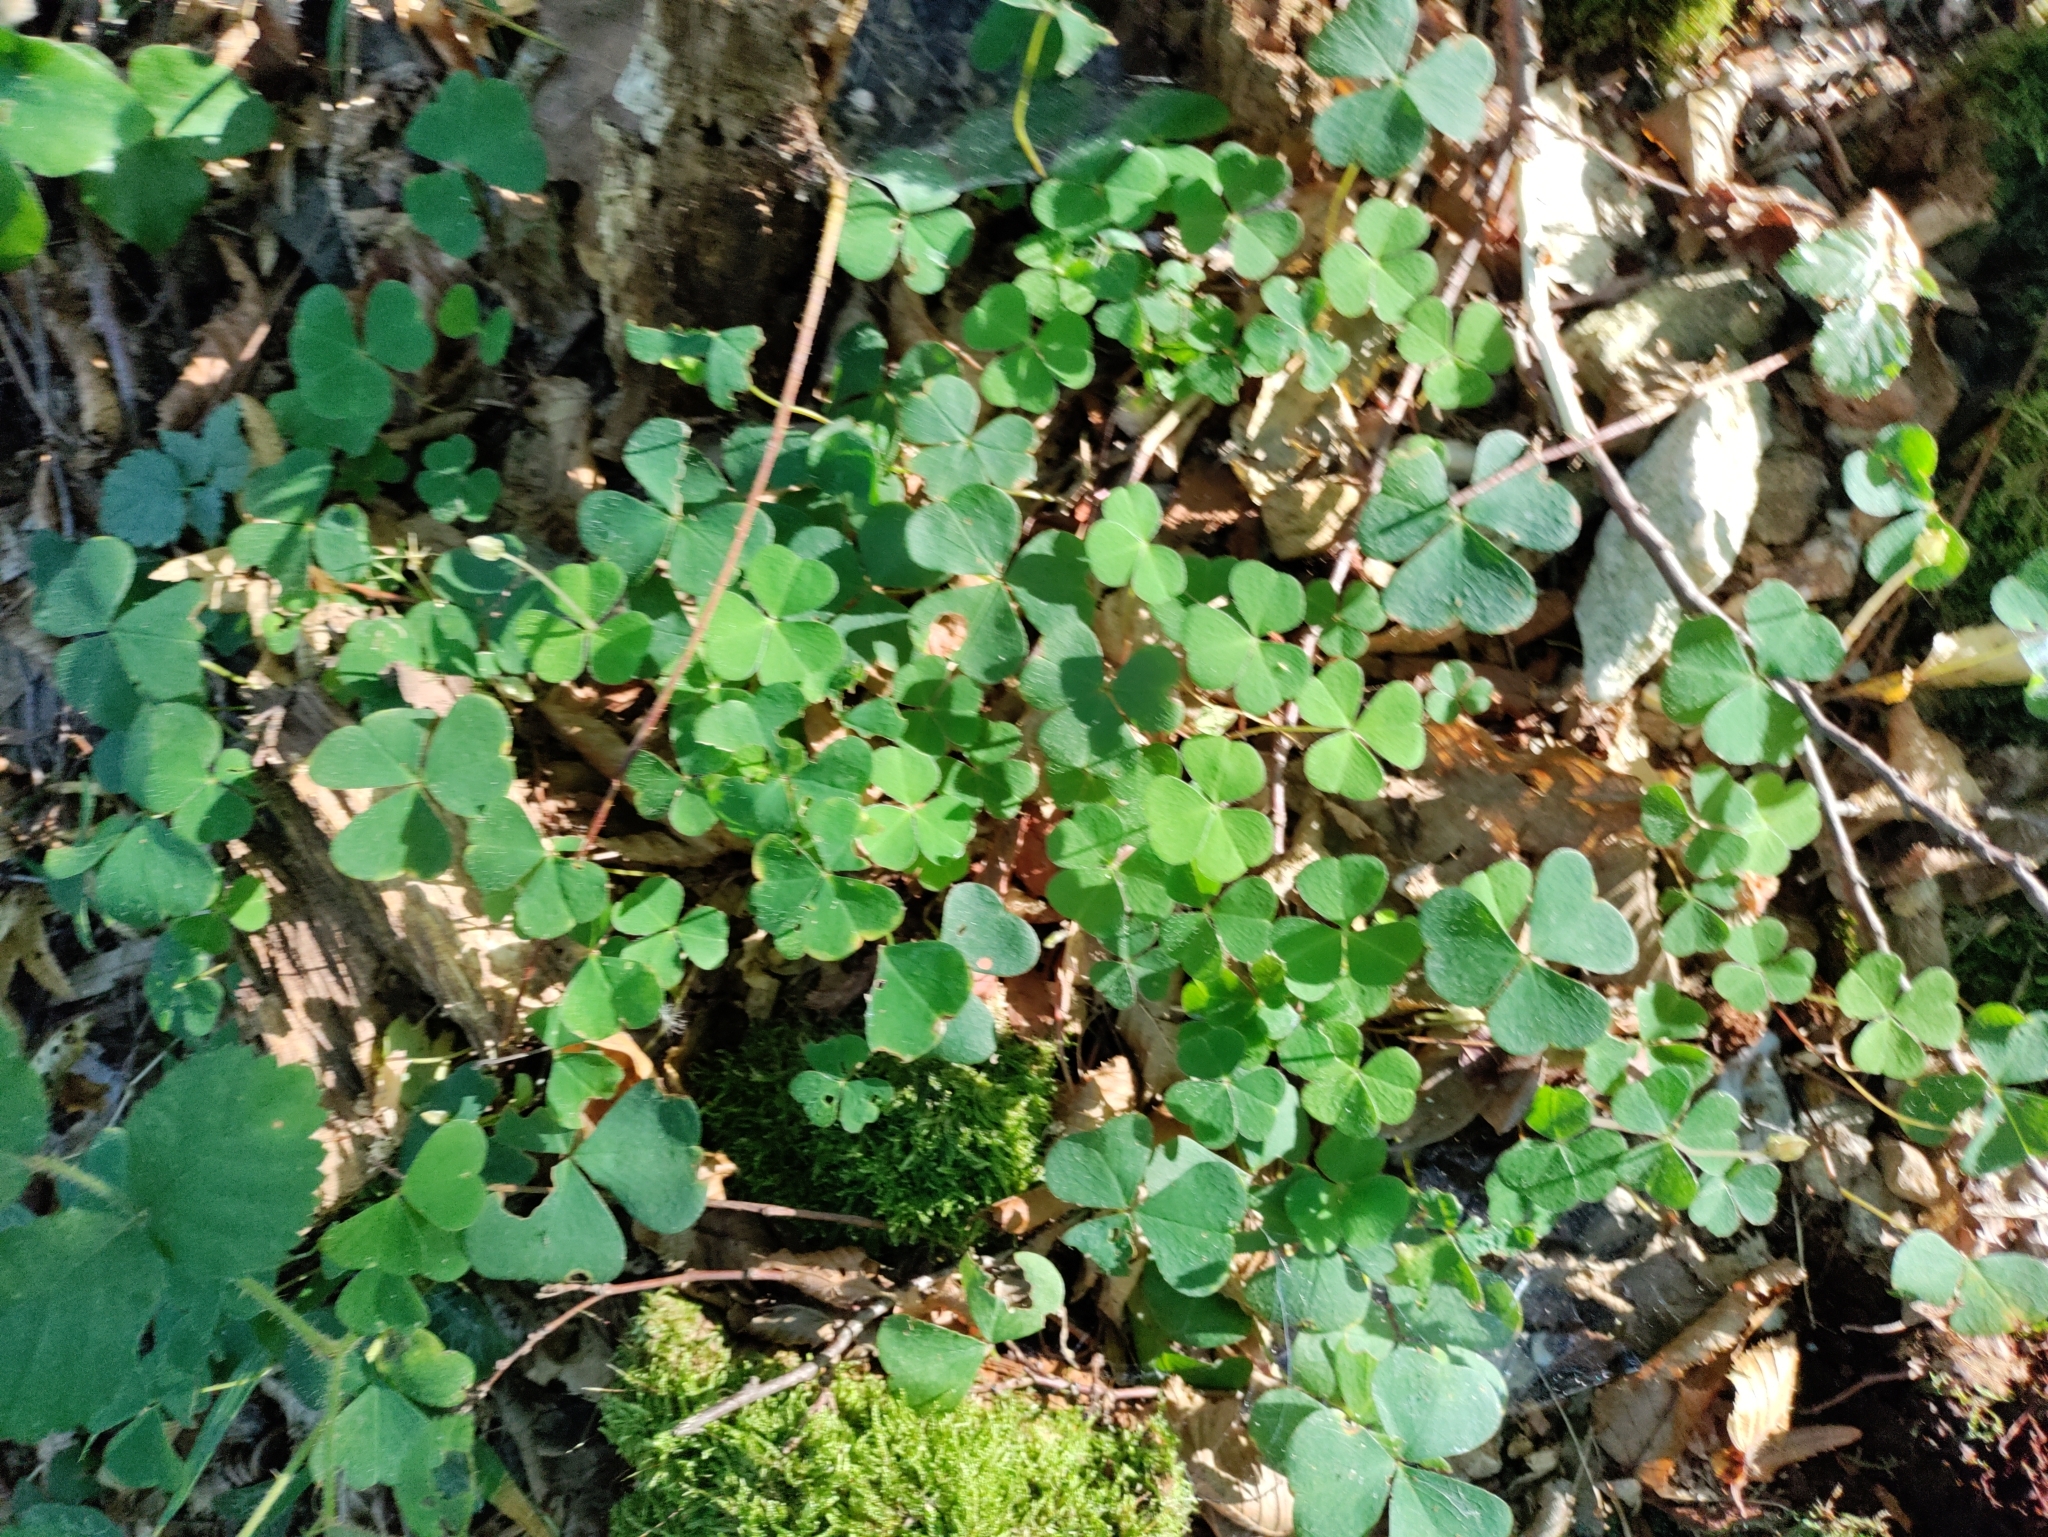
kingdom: Plantae
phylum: Tracheophyta
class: Magnoliopsida
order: Oxalidales
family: Oxalidaceae
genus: Oxalis
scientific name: Oxalis acetosella
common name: Wood-sorrel
